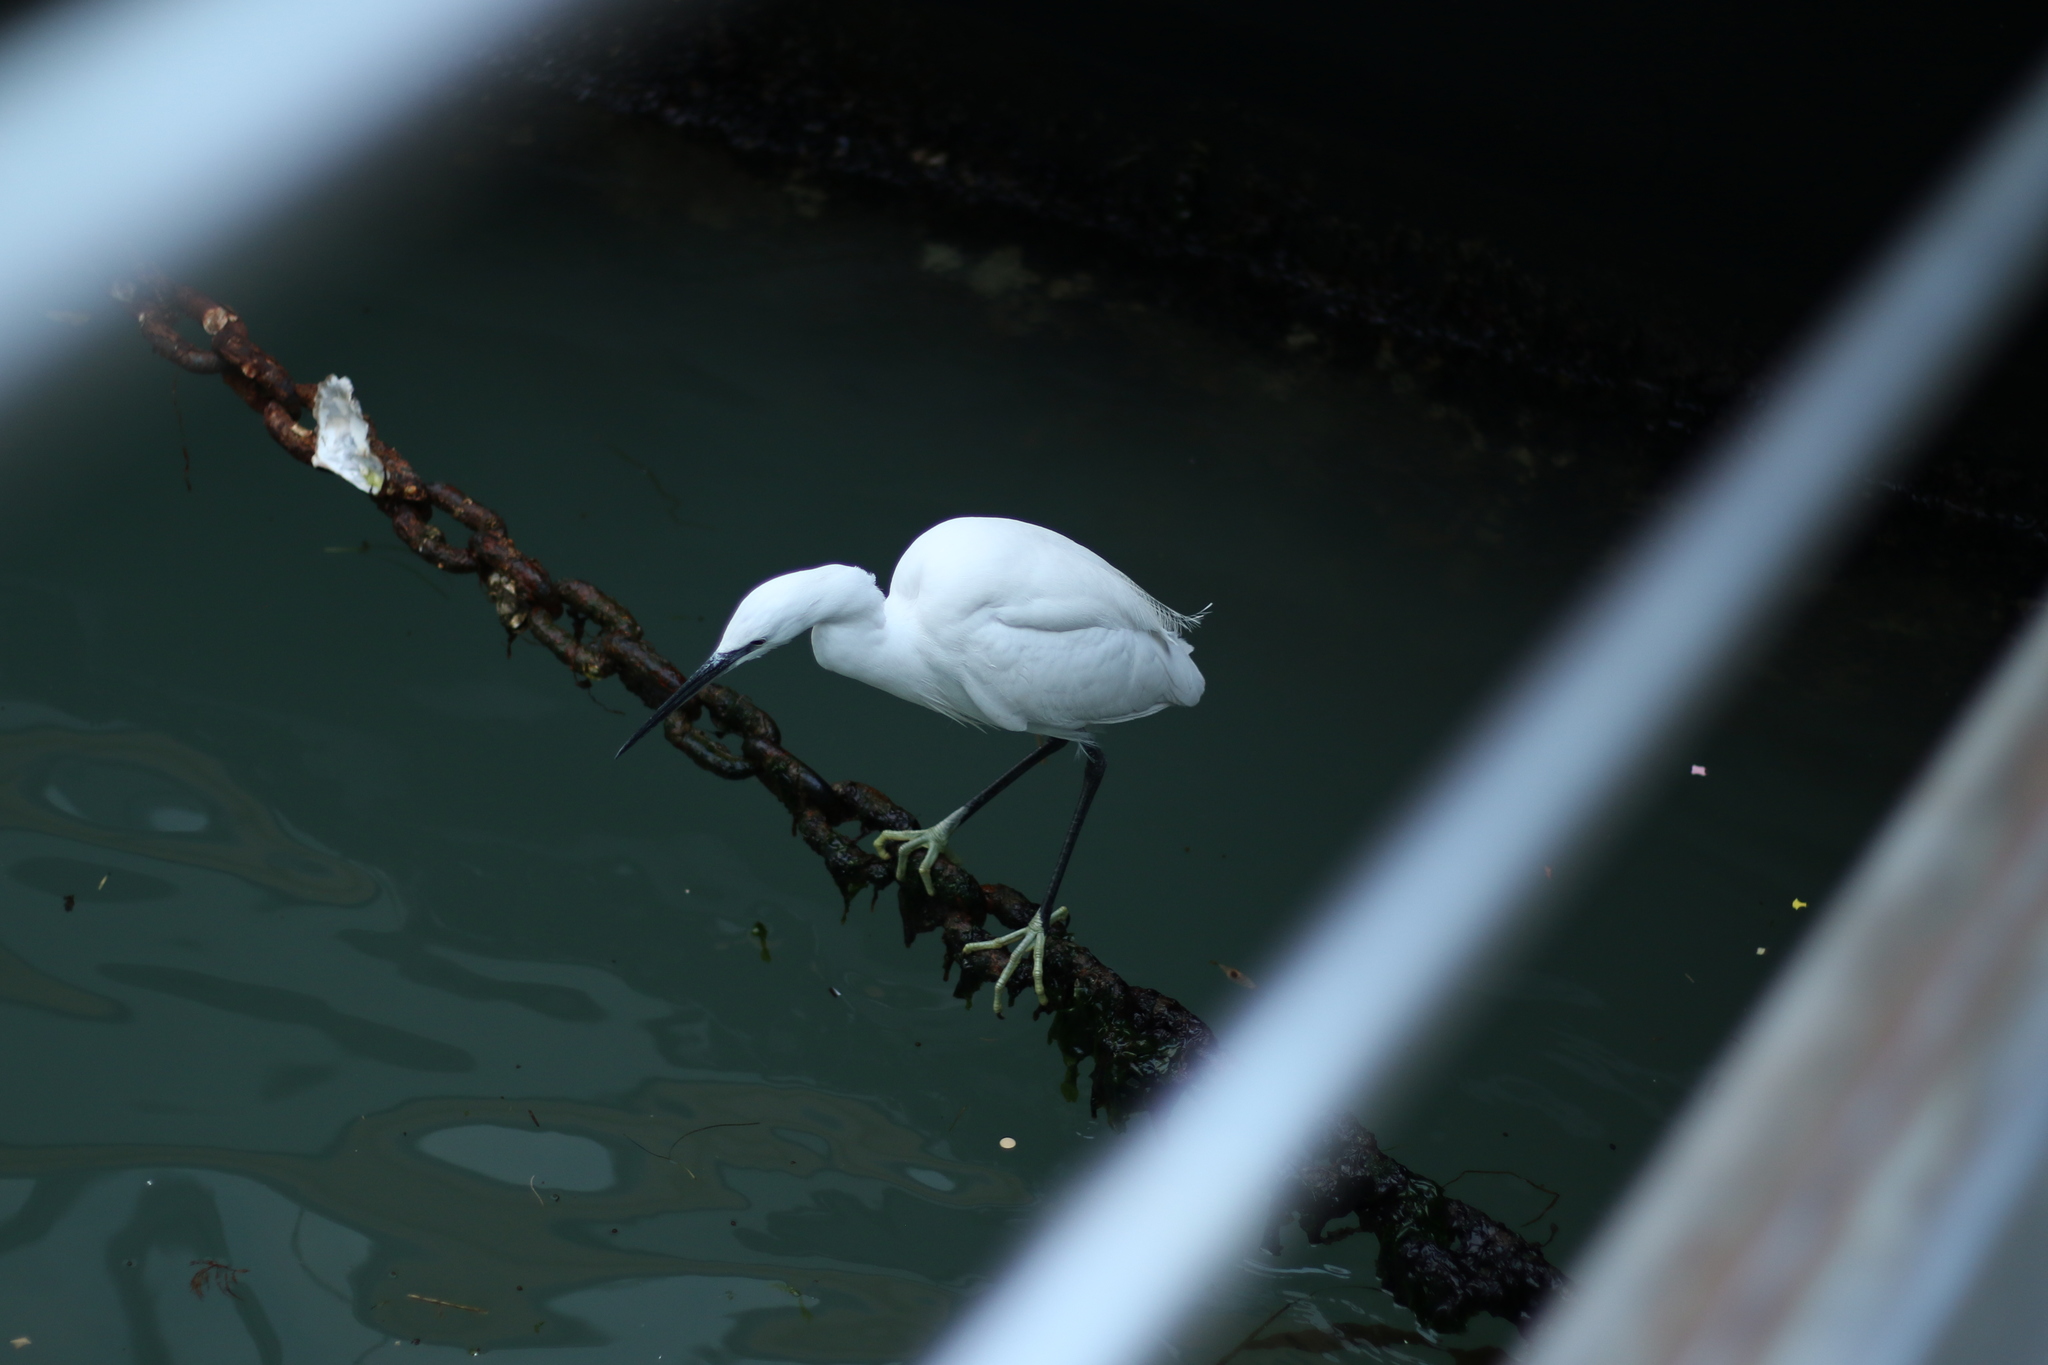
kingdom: Animalia
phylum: Chordata
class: Aves
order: Pelecaniformes
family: Ardeidae
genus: Egretta
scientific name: Egretta garzetta
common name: Little egret
